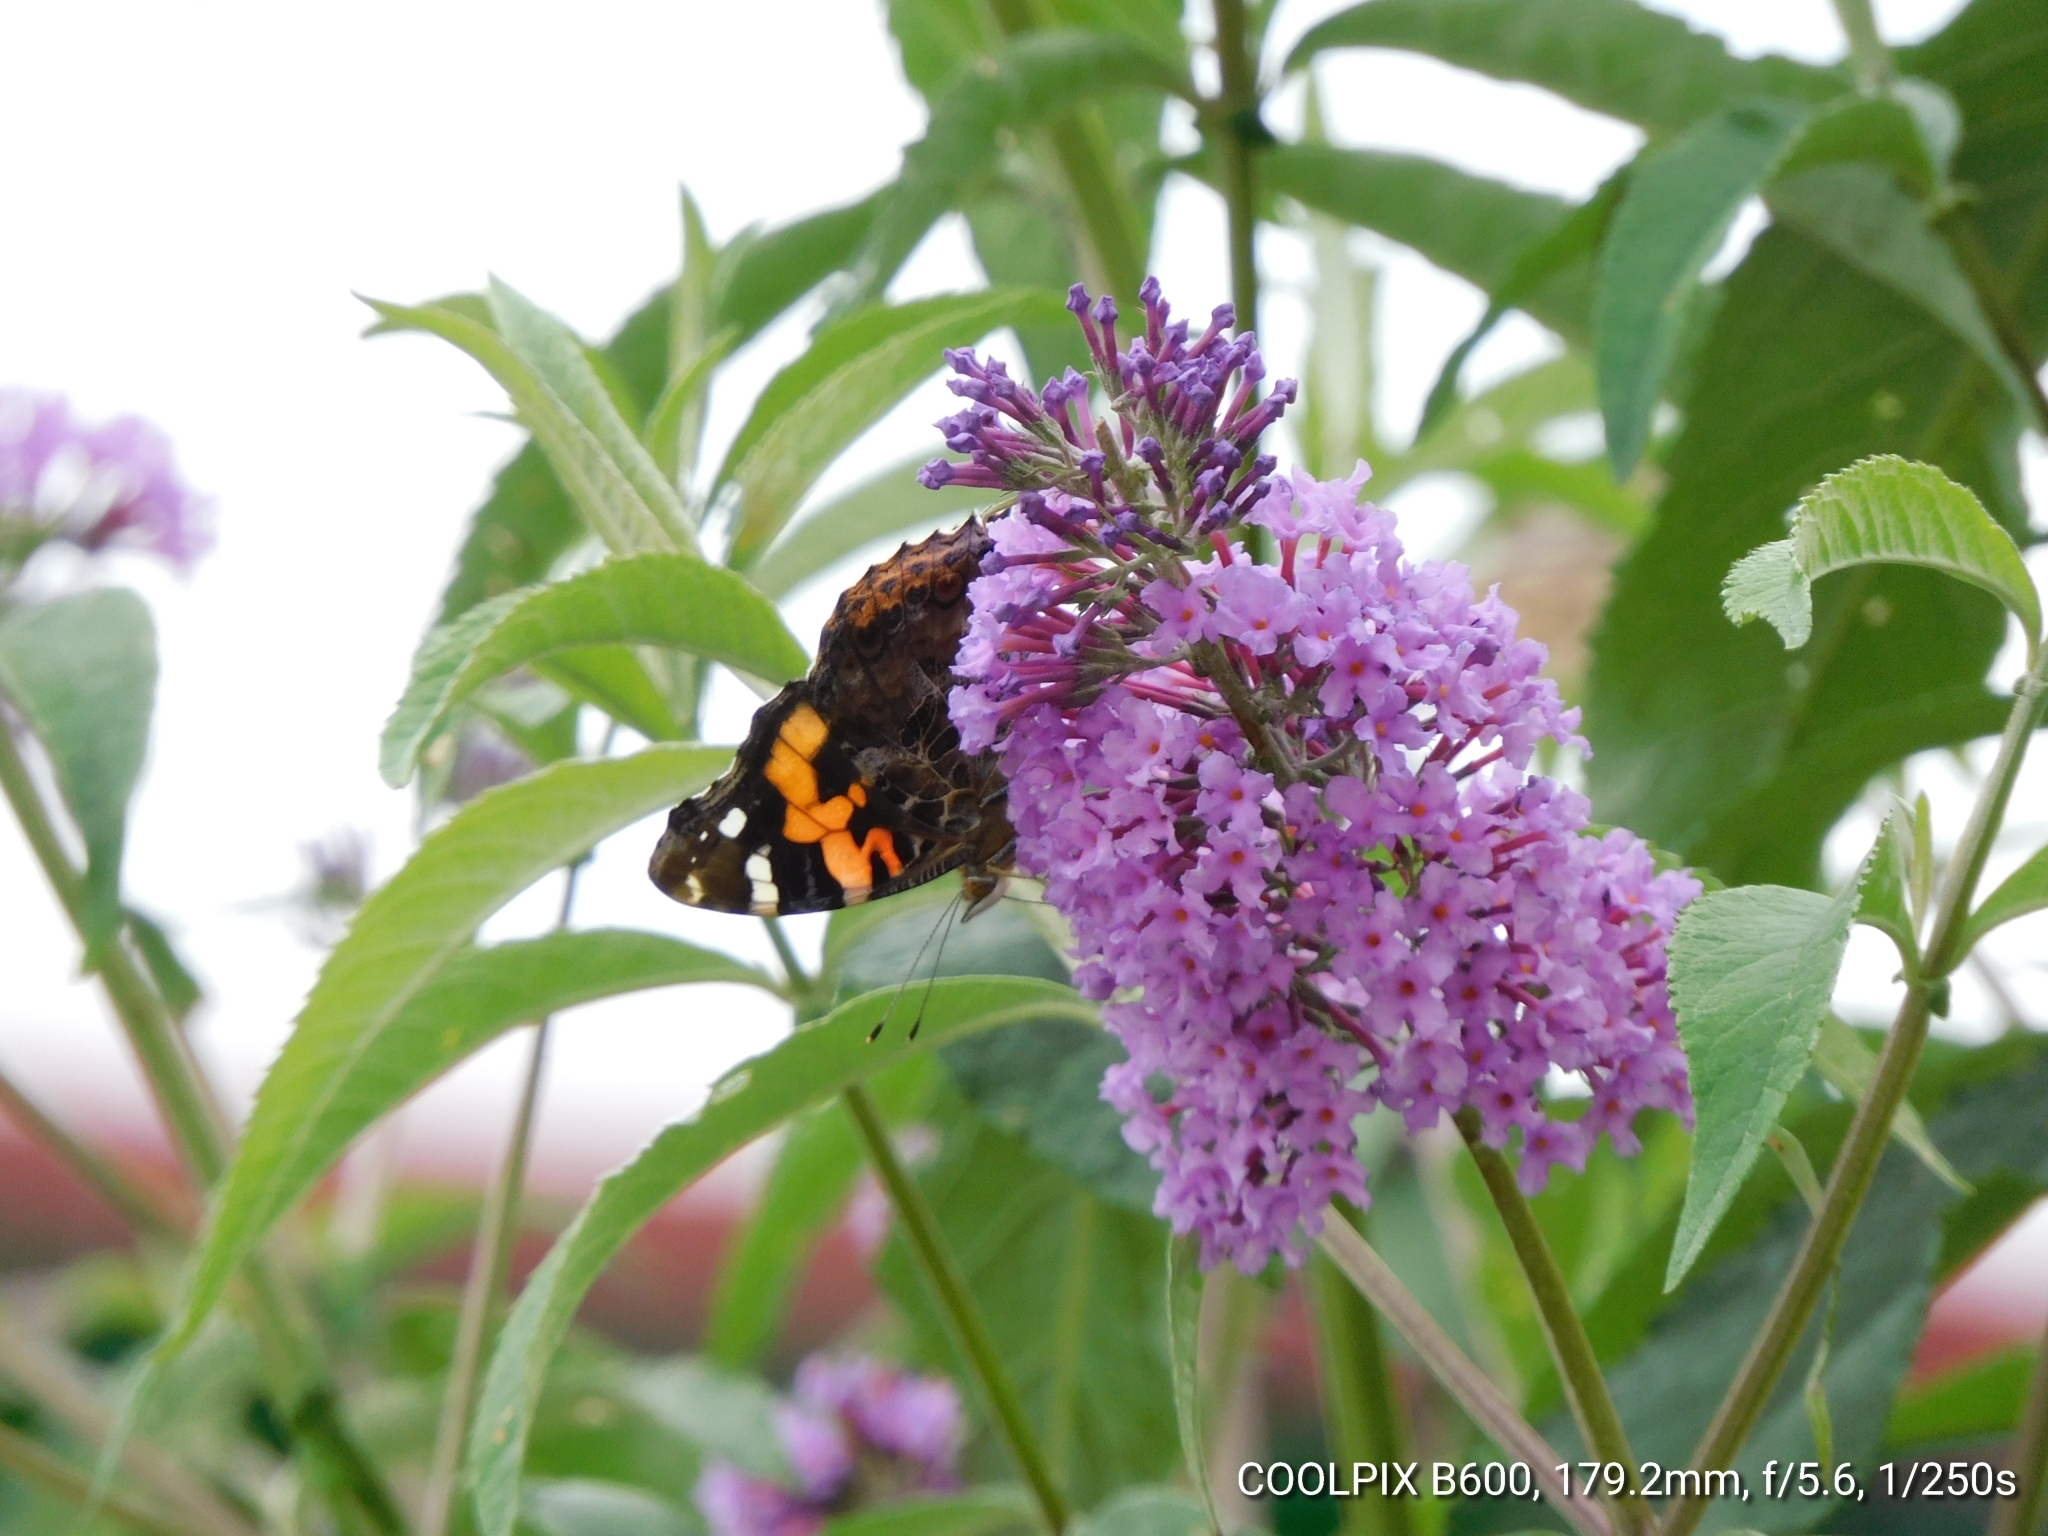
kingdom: Animalia
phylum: Arthropoda
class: Insecta
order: Lepidoptera
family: Nymphalidae
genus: Vanessa
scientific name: Vanessa indica
